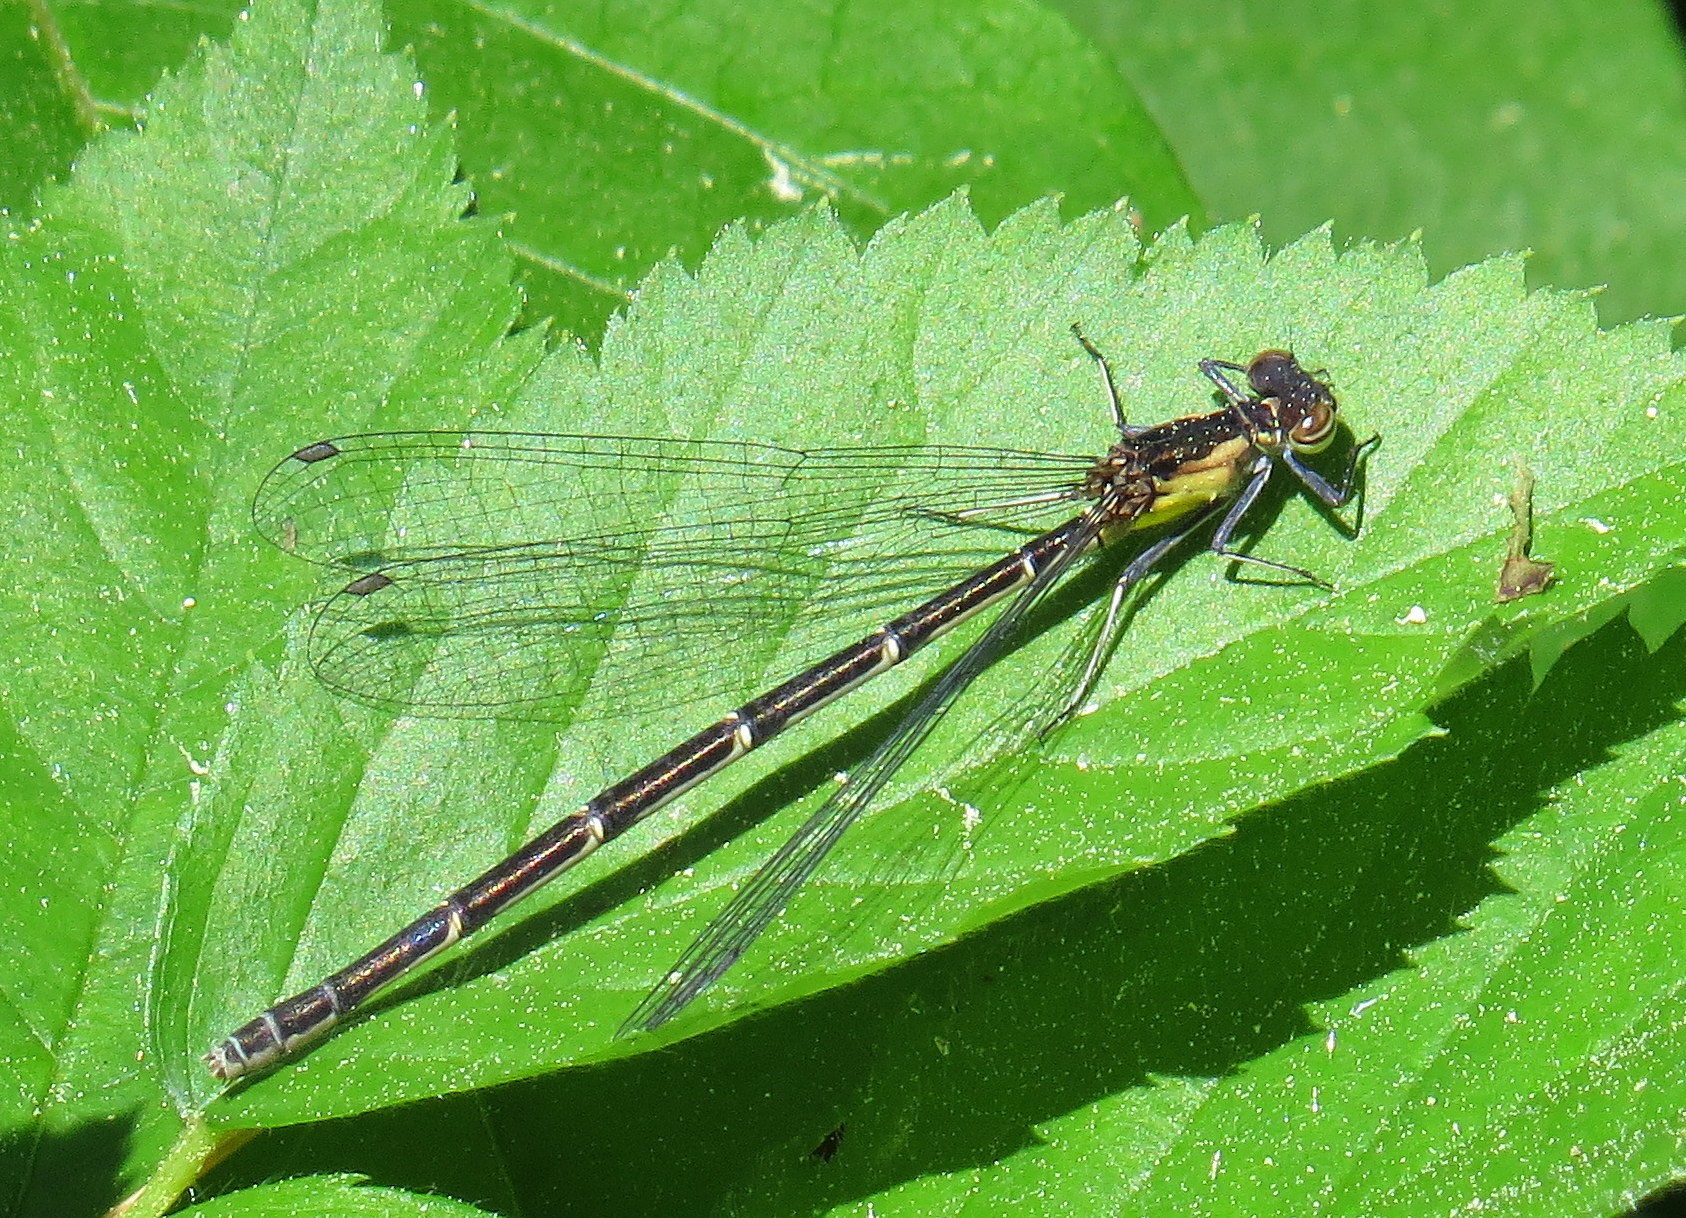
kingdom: Animalia
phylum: Arthropoda
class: Insecta
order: Odonata
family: Coenagrionidae
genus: Chromagrion
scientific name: Chromagrion conditum
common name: Aurora damsel
